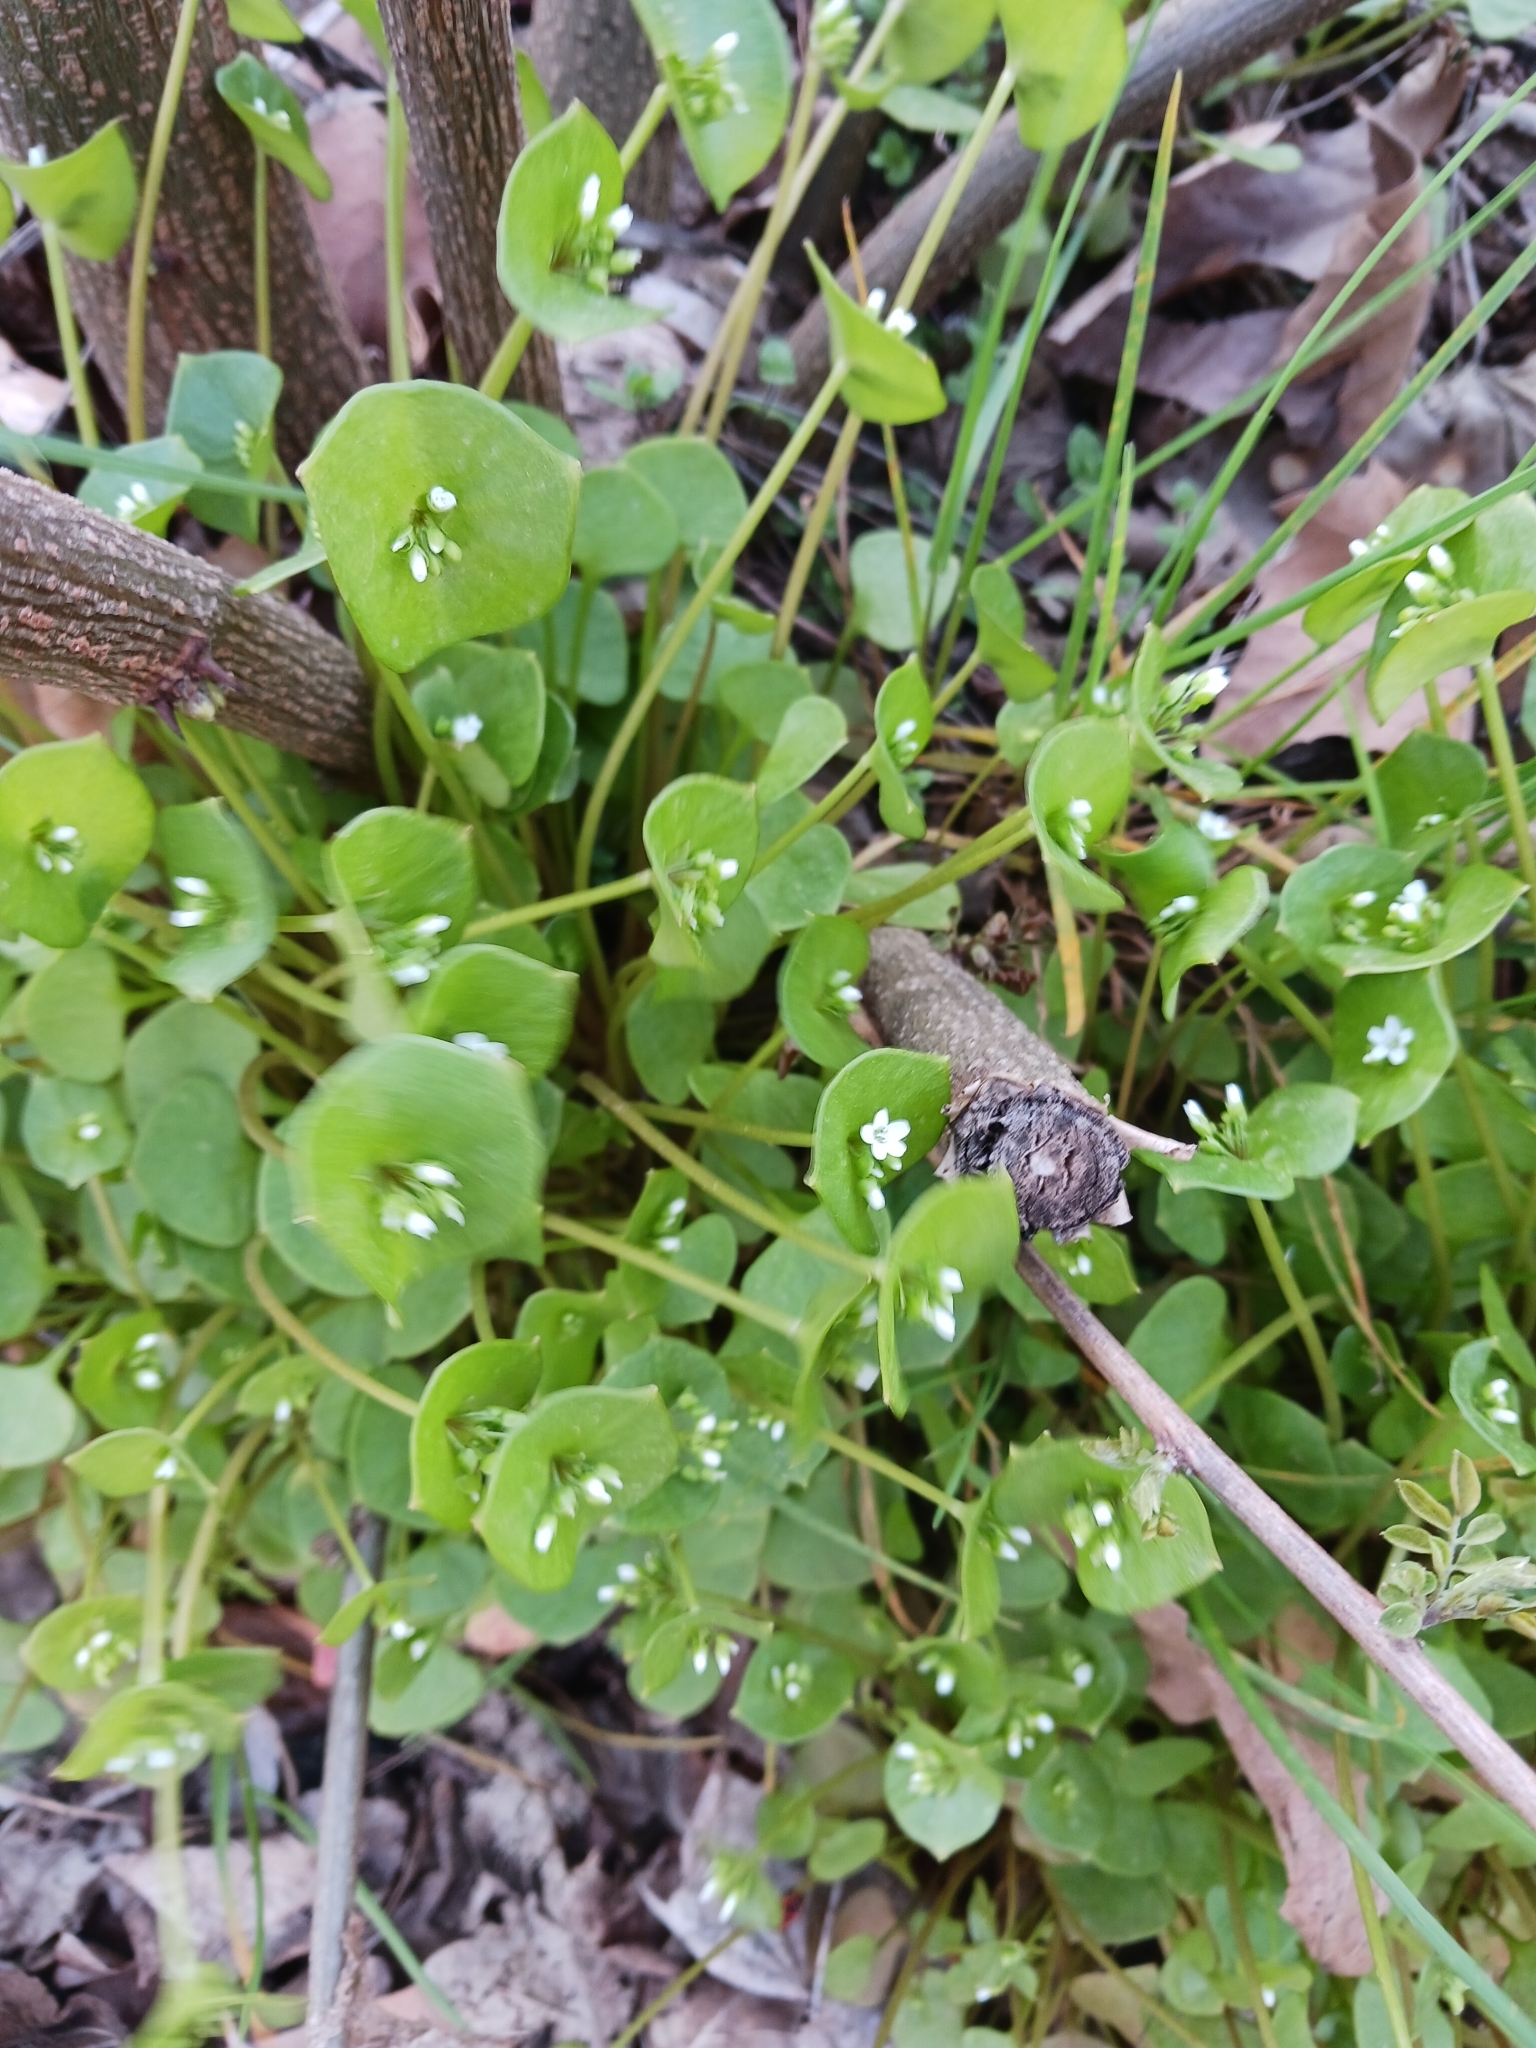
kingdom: Plantae
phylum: Tracheophyta
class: Magnoliopsida
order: Caryophyllales
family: Montiaceae
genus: Claytonia
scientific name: Claytonia perfoliata
